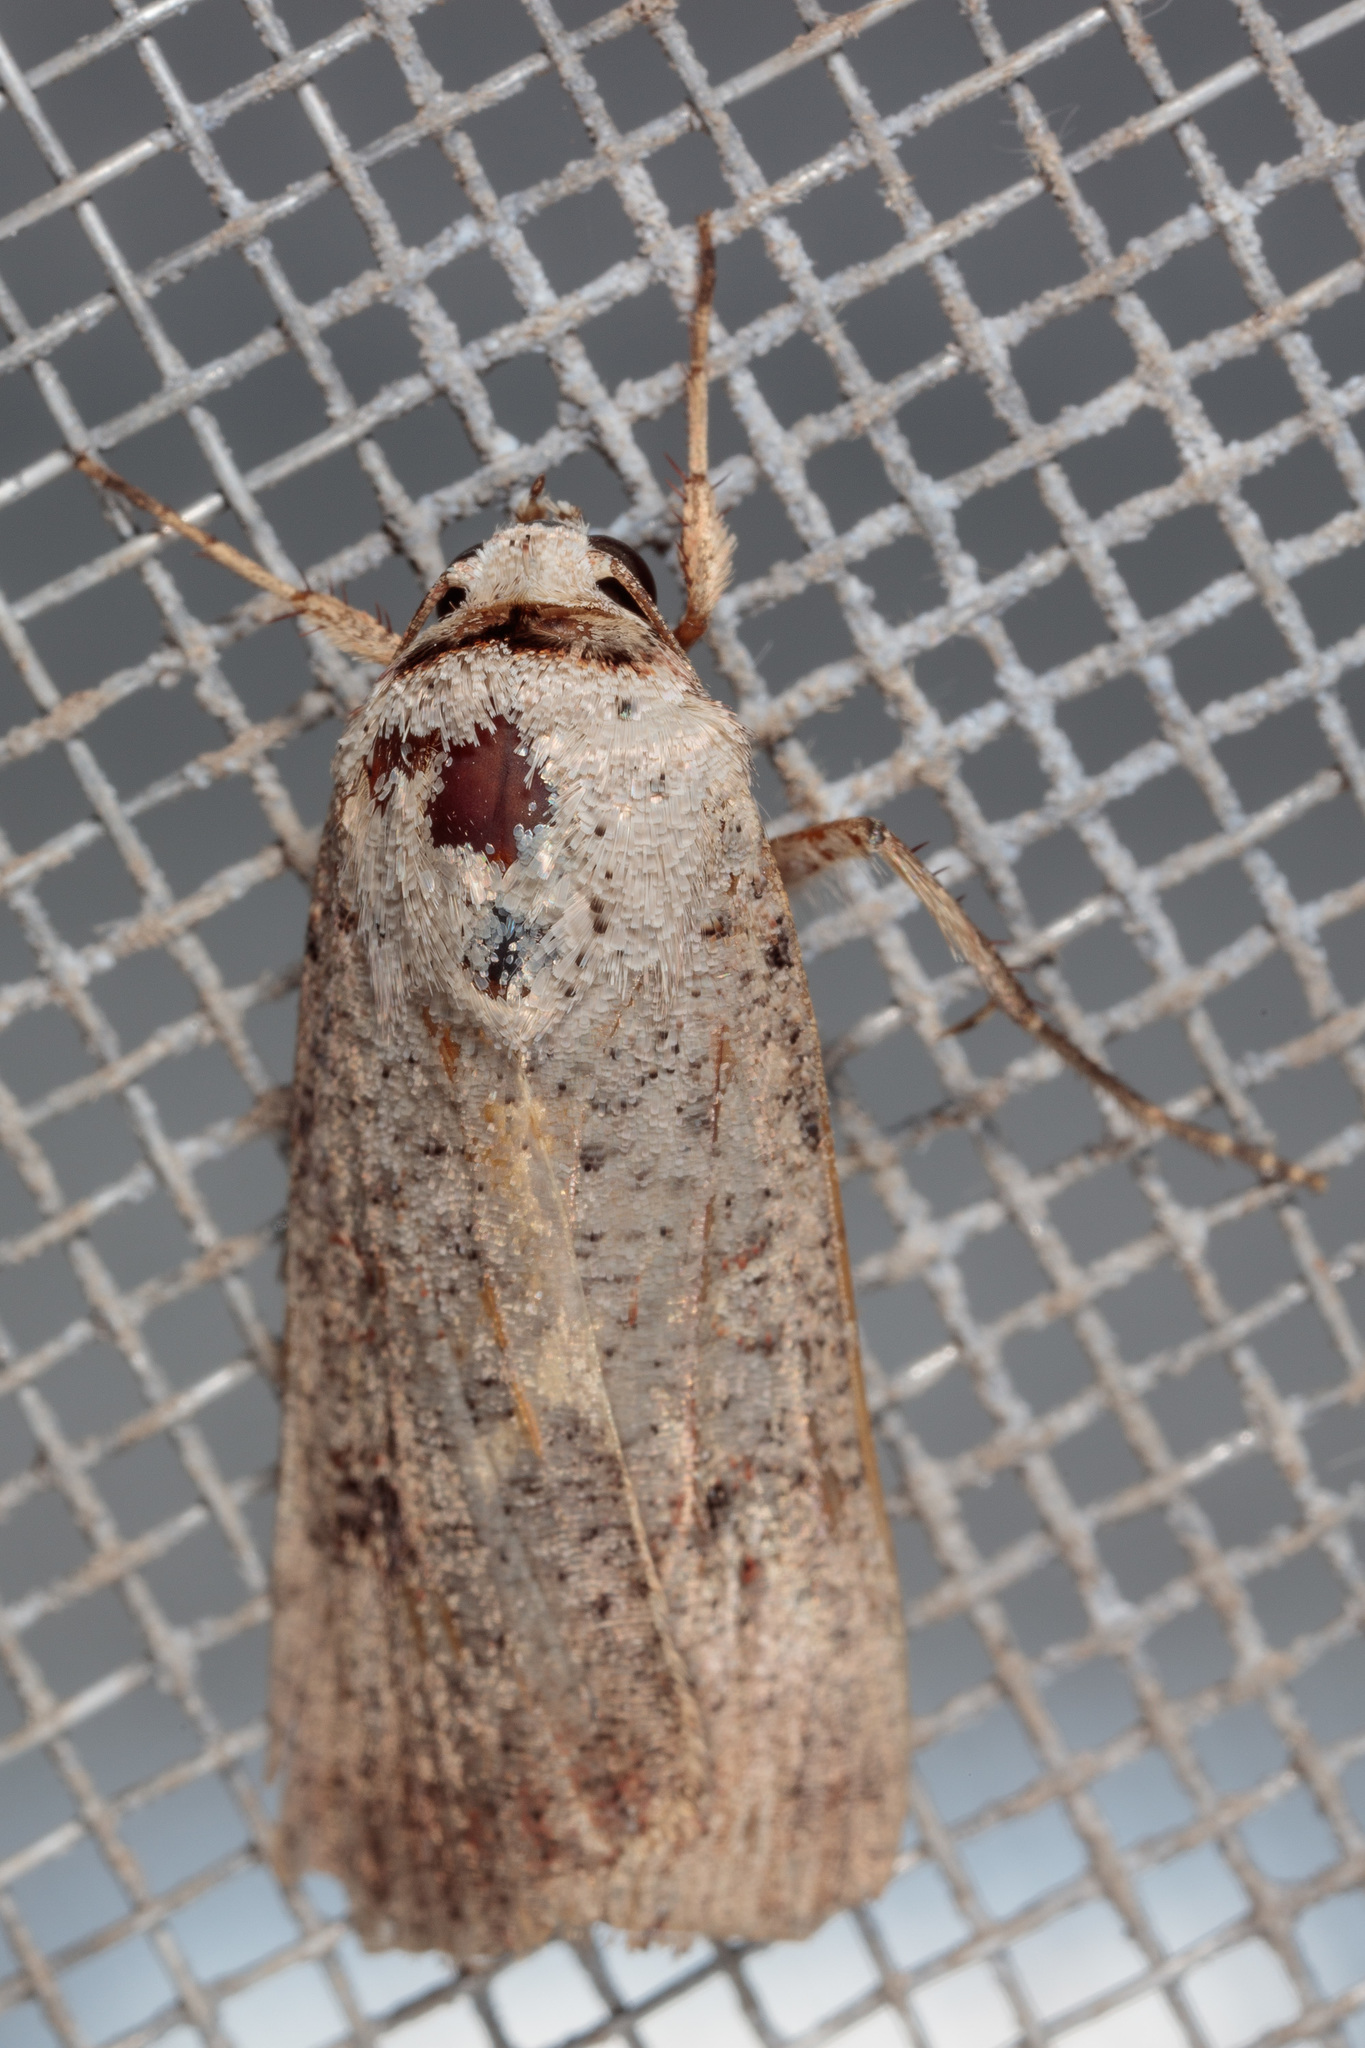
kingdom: Animalia
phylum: Arthropoda
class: Insecta
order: Lepidoptera
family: Noctuidae
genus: Anicla
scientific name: Anicla infecta
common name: Green cutworm
